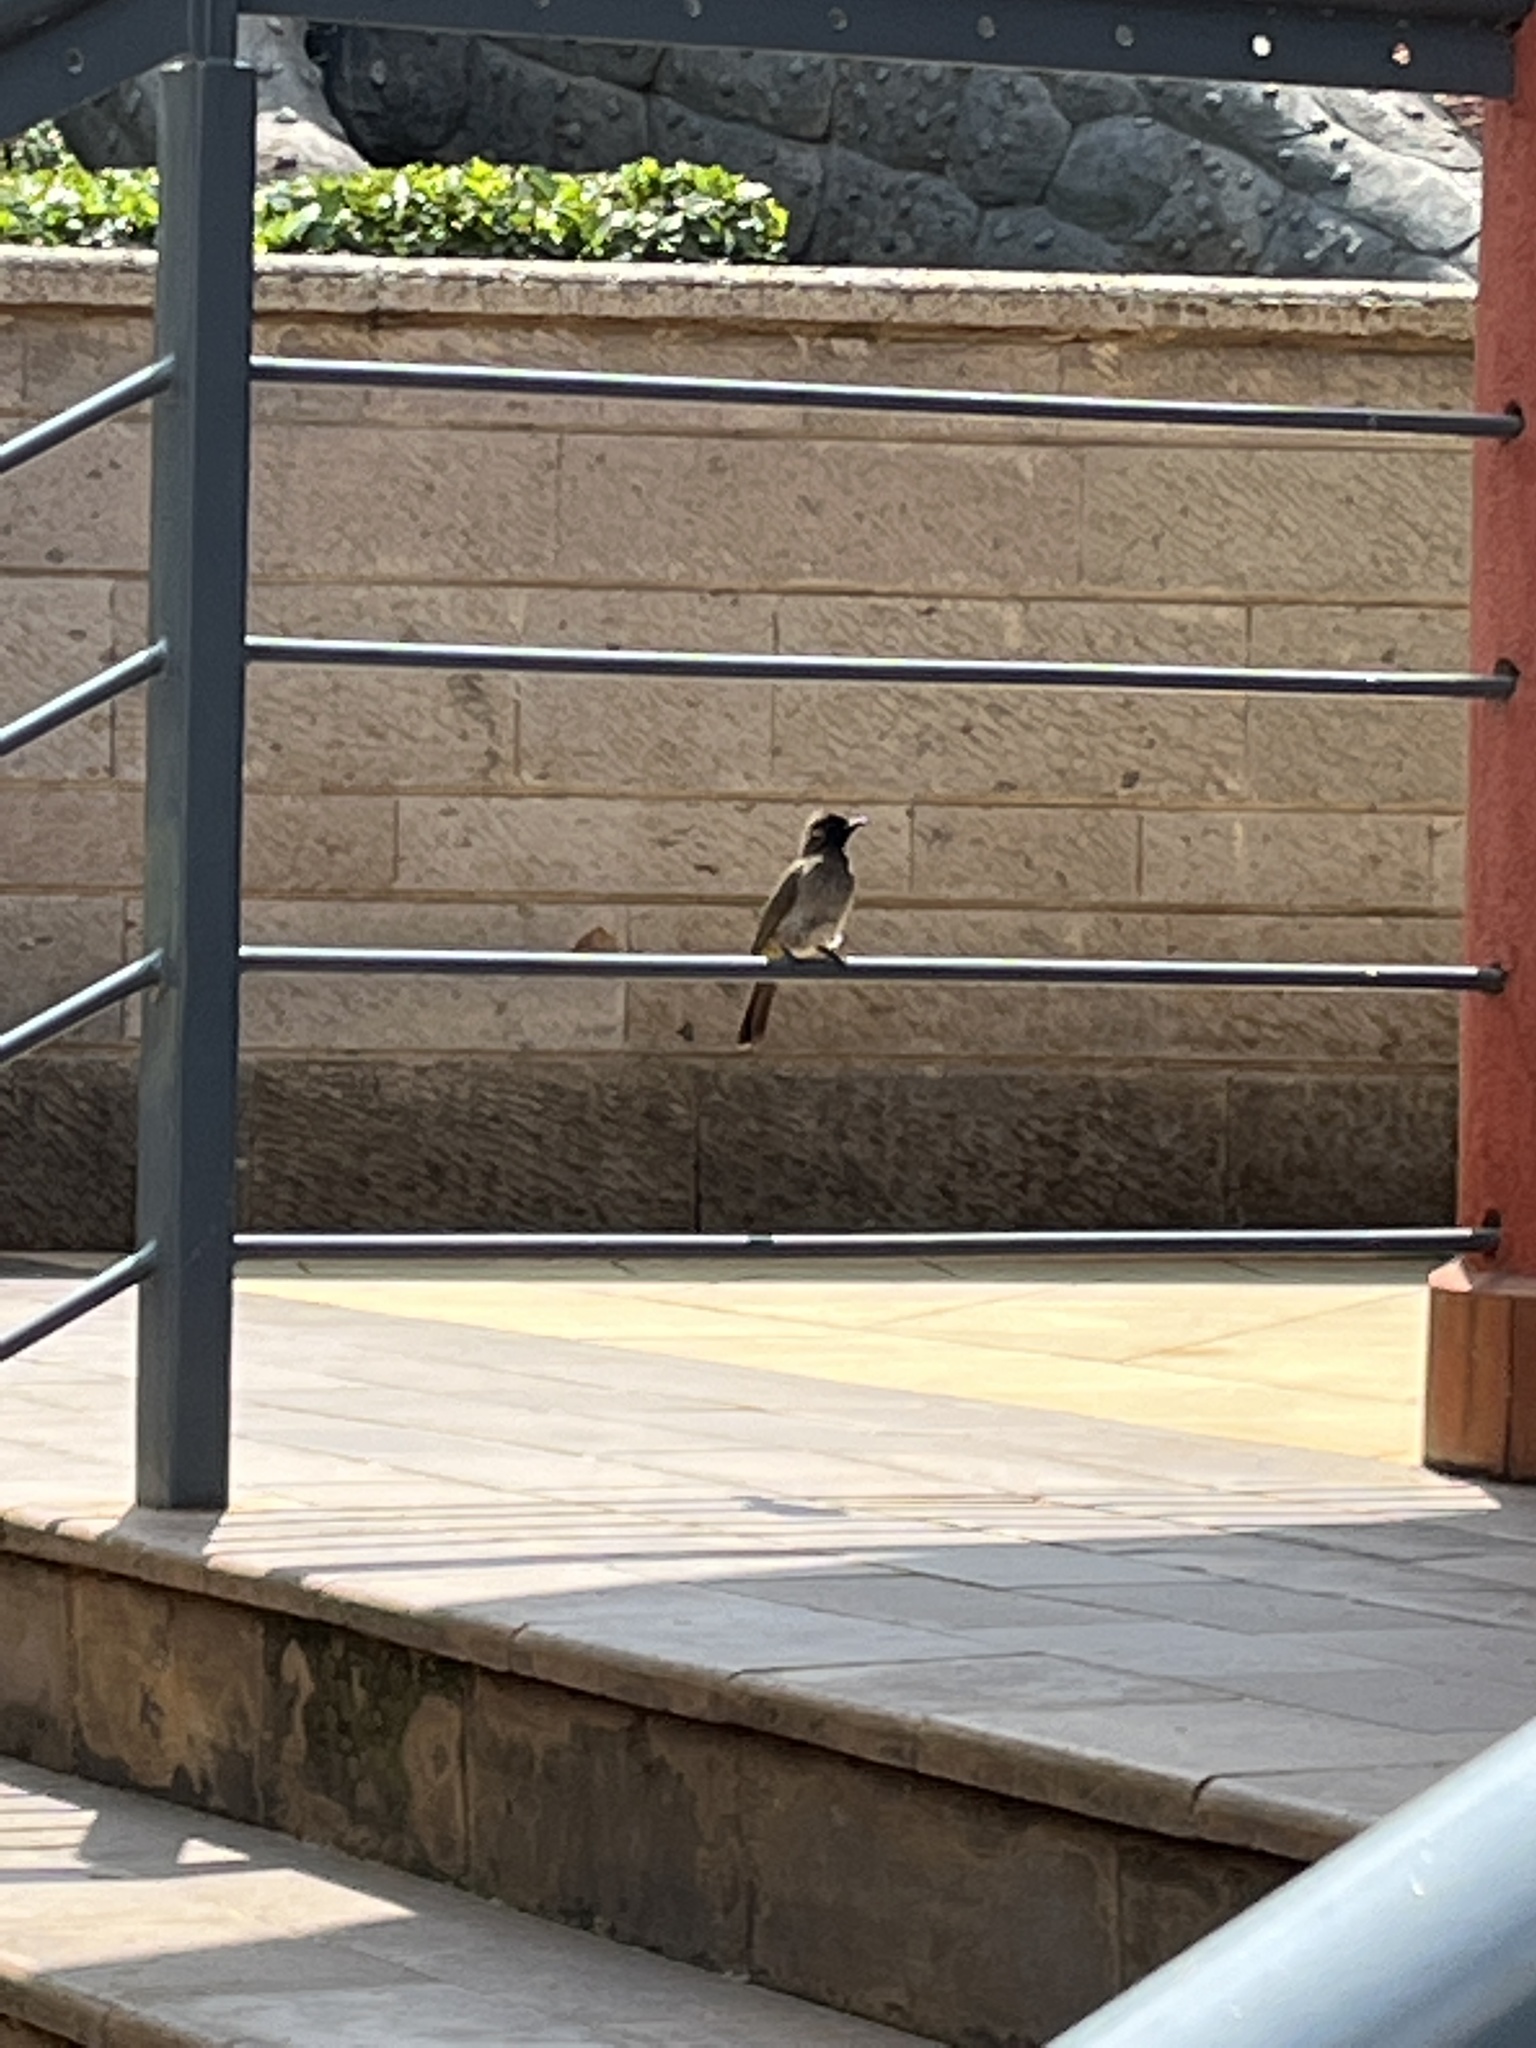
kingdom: Animalia
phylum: Chordata
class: Aves
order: Passeriformes
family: Pycnonotidae
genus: Pycnonotus
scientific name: Pycnonotus barbatus
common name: Common bulbul
